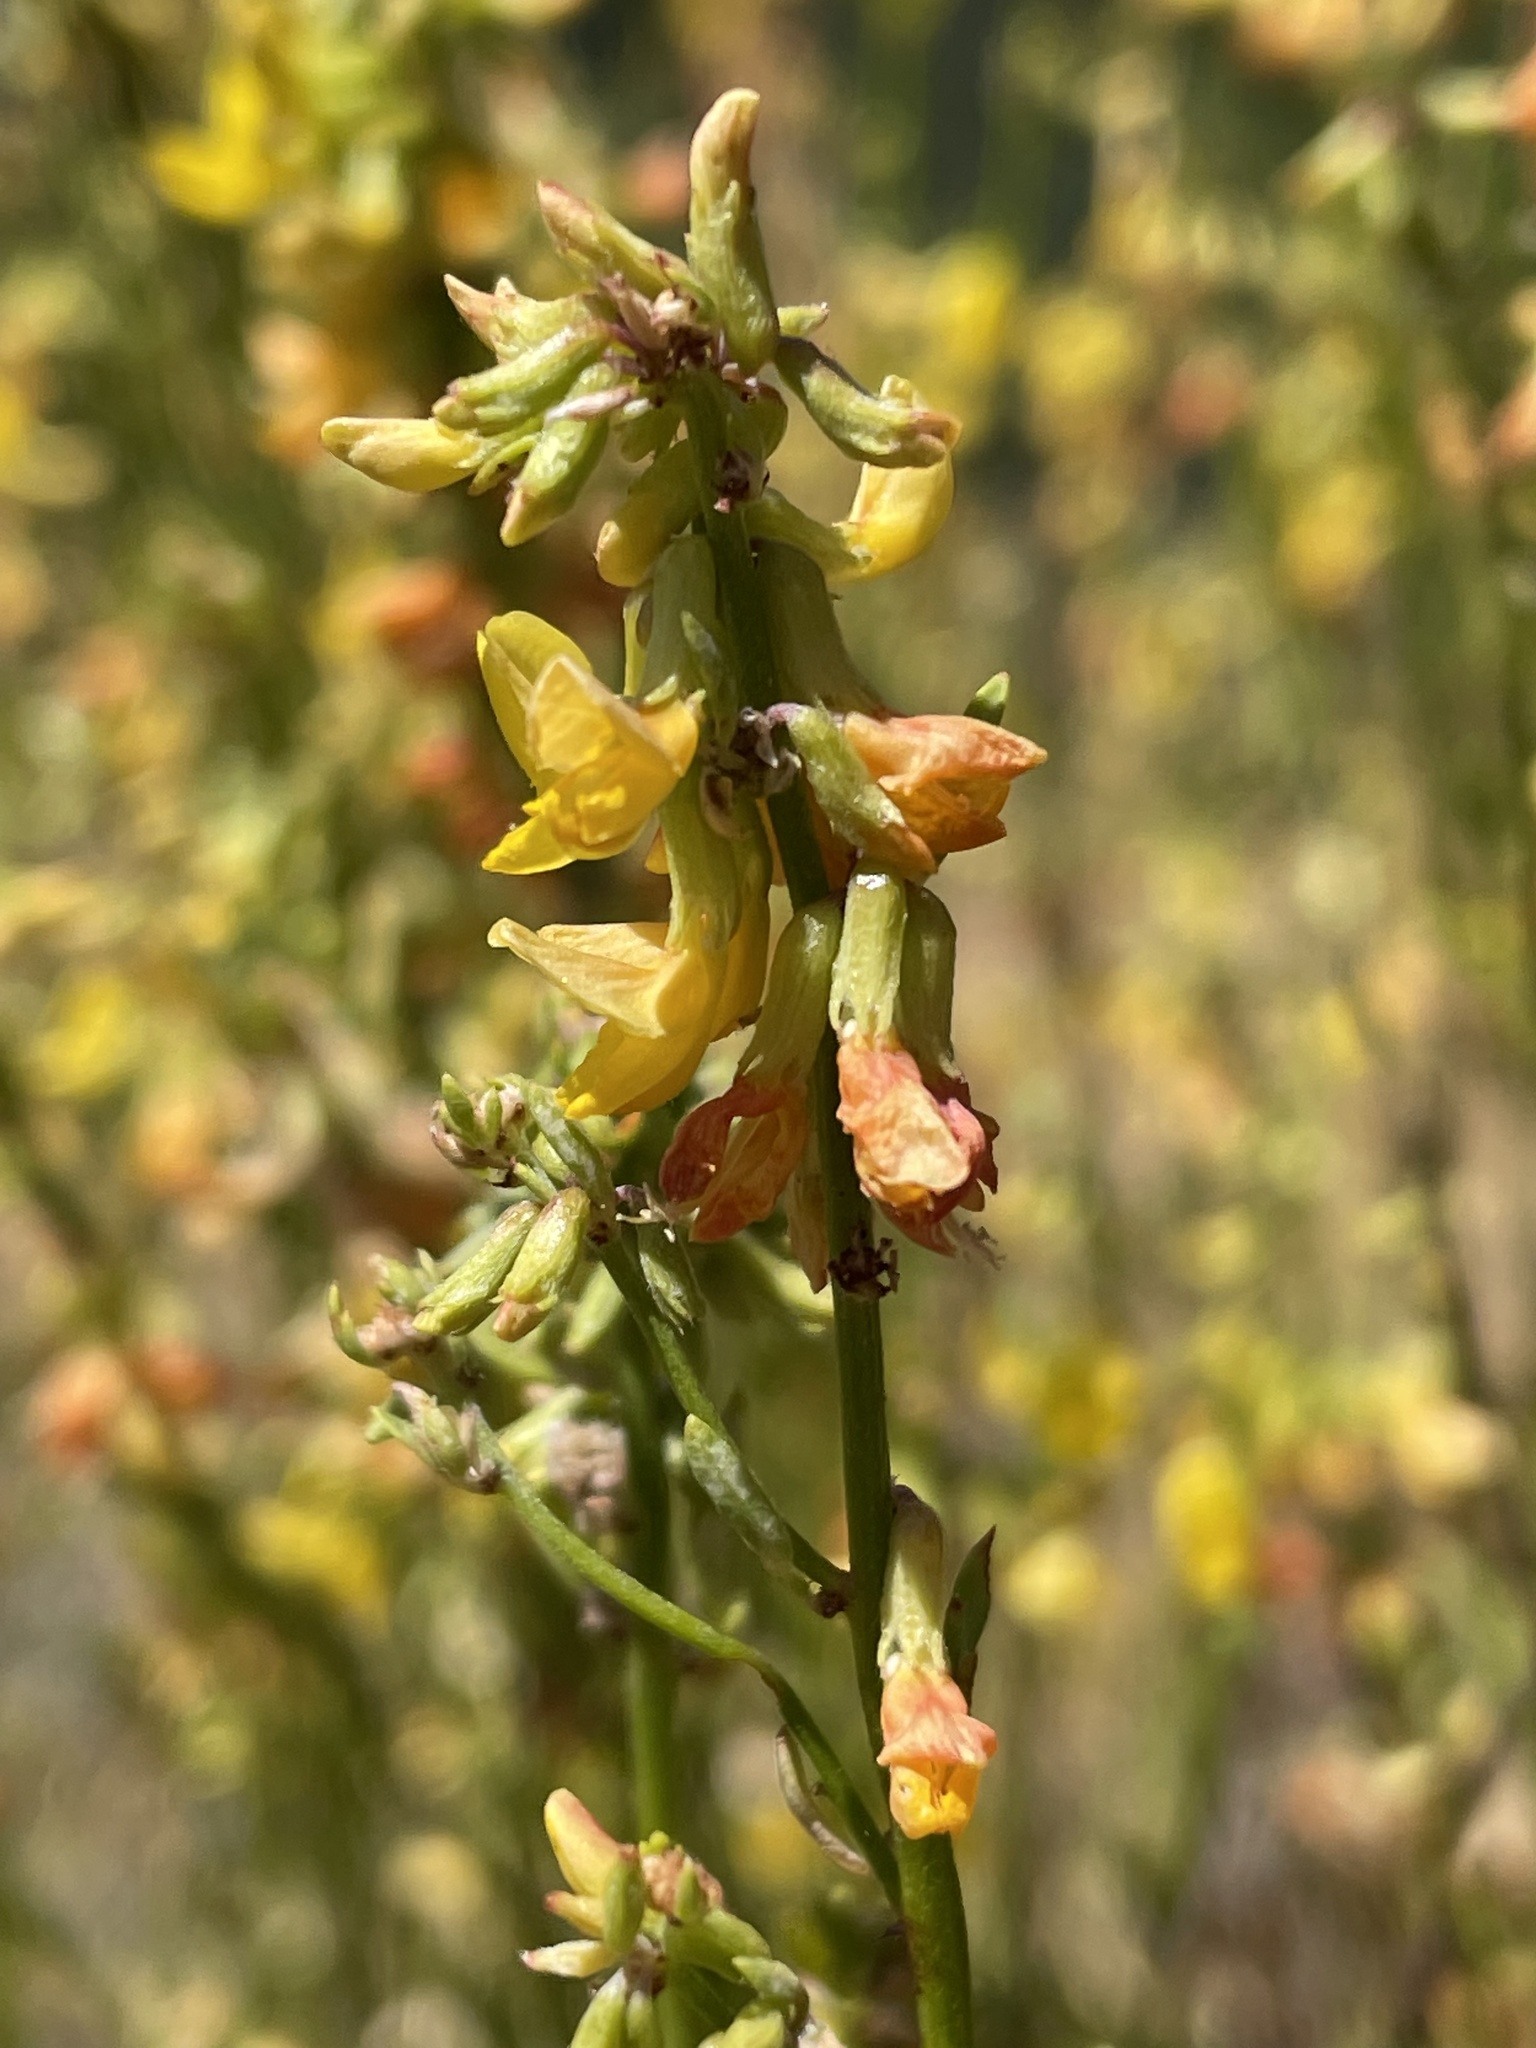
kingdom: Plantae
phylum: Tracheophyta
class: Magnoliopsida
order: Fabales
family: Fabaceae
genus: Acmispon
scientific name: Acmispon glaber
